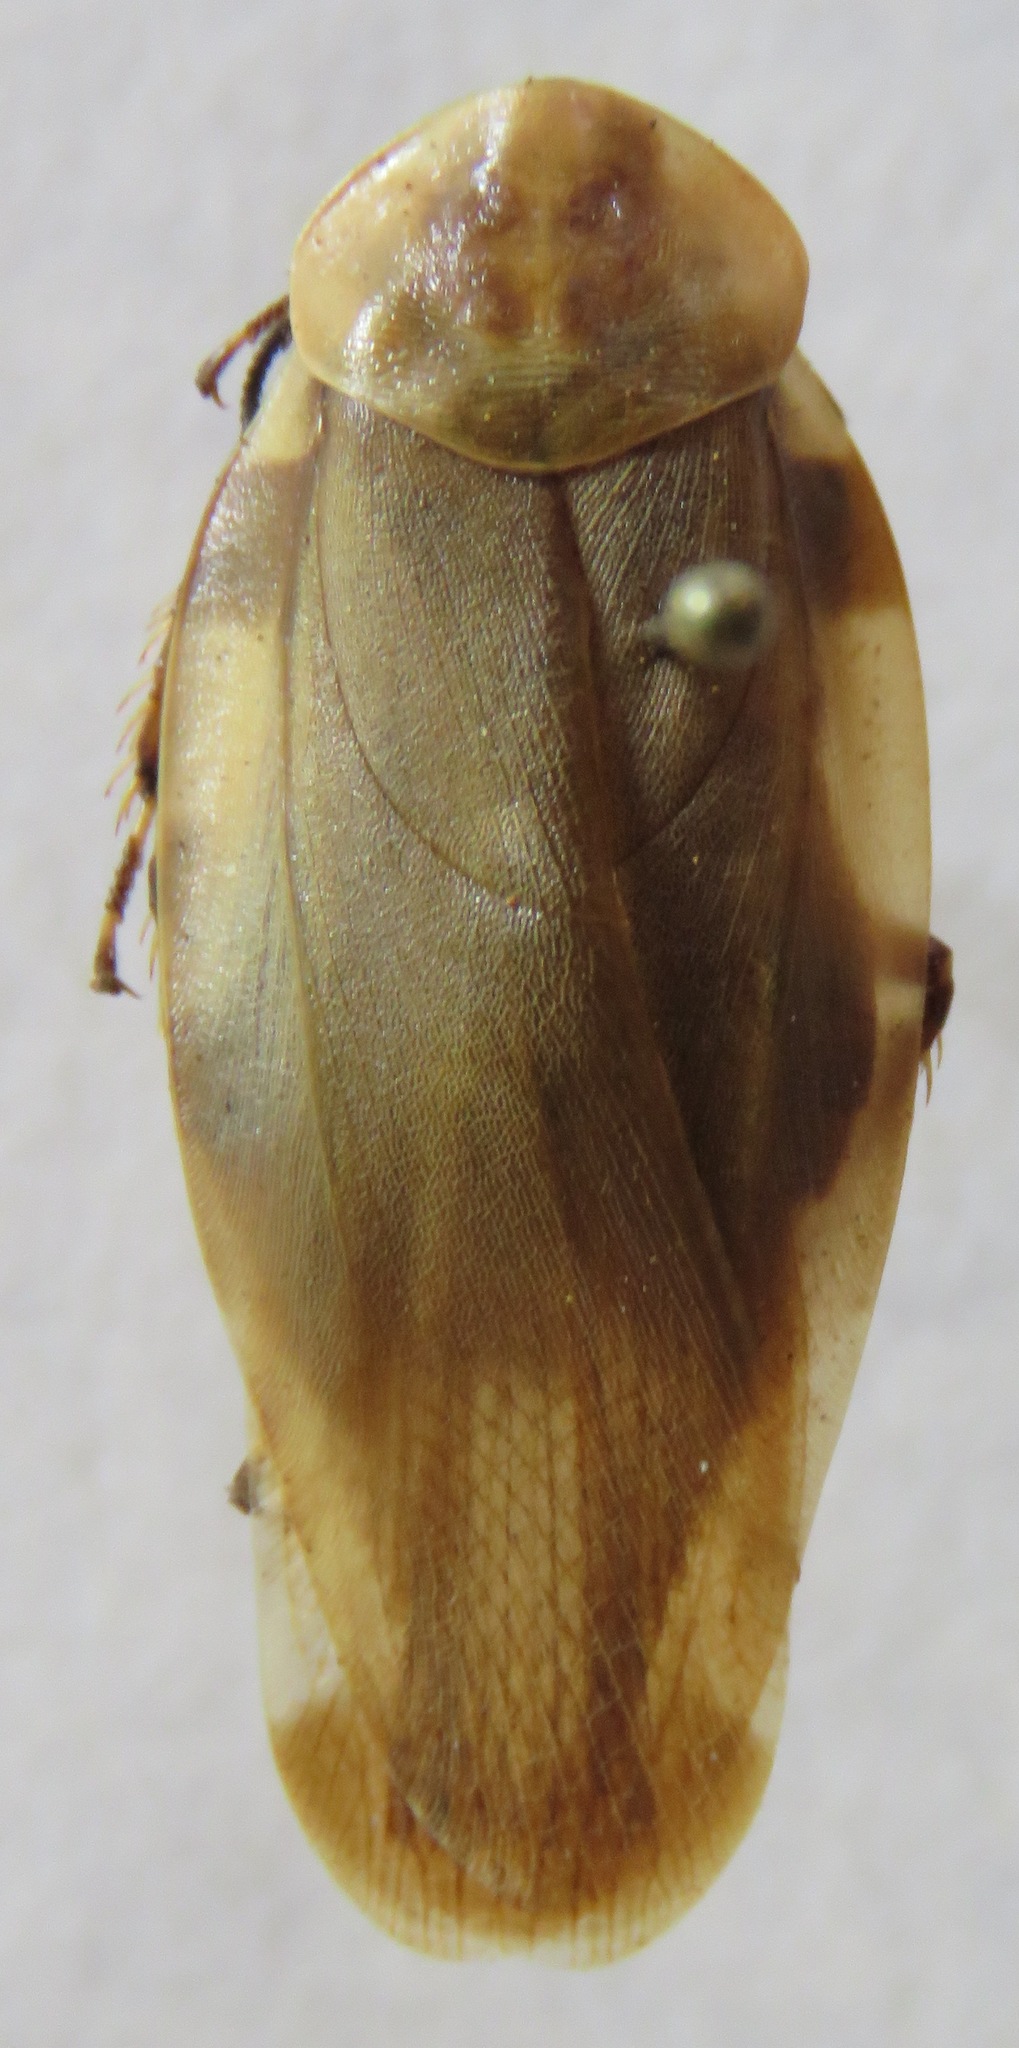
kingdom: Animalia
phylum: Arthropoda
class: Insecta
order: Blattodea
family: Blaberidae
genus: Achroblatta
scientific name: Achroblatta luteola
